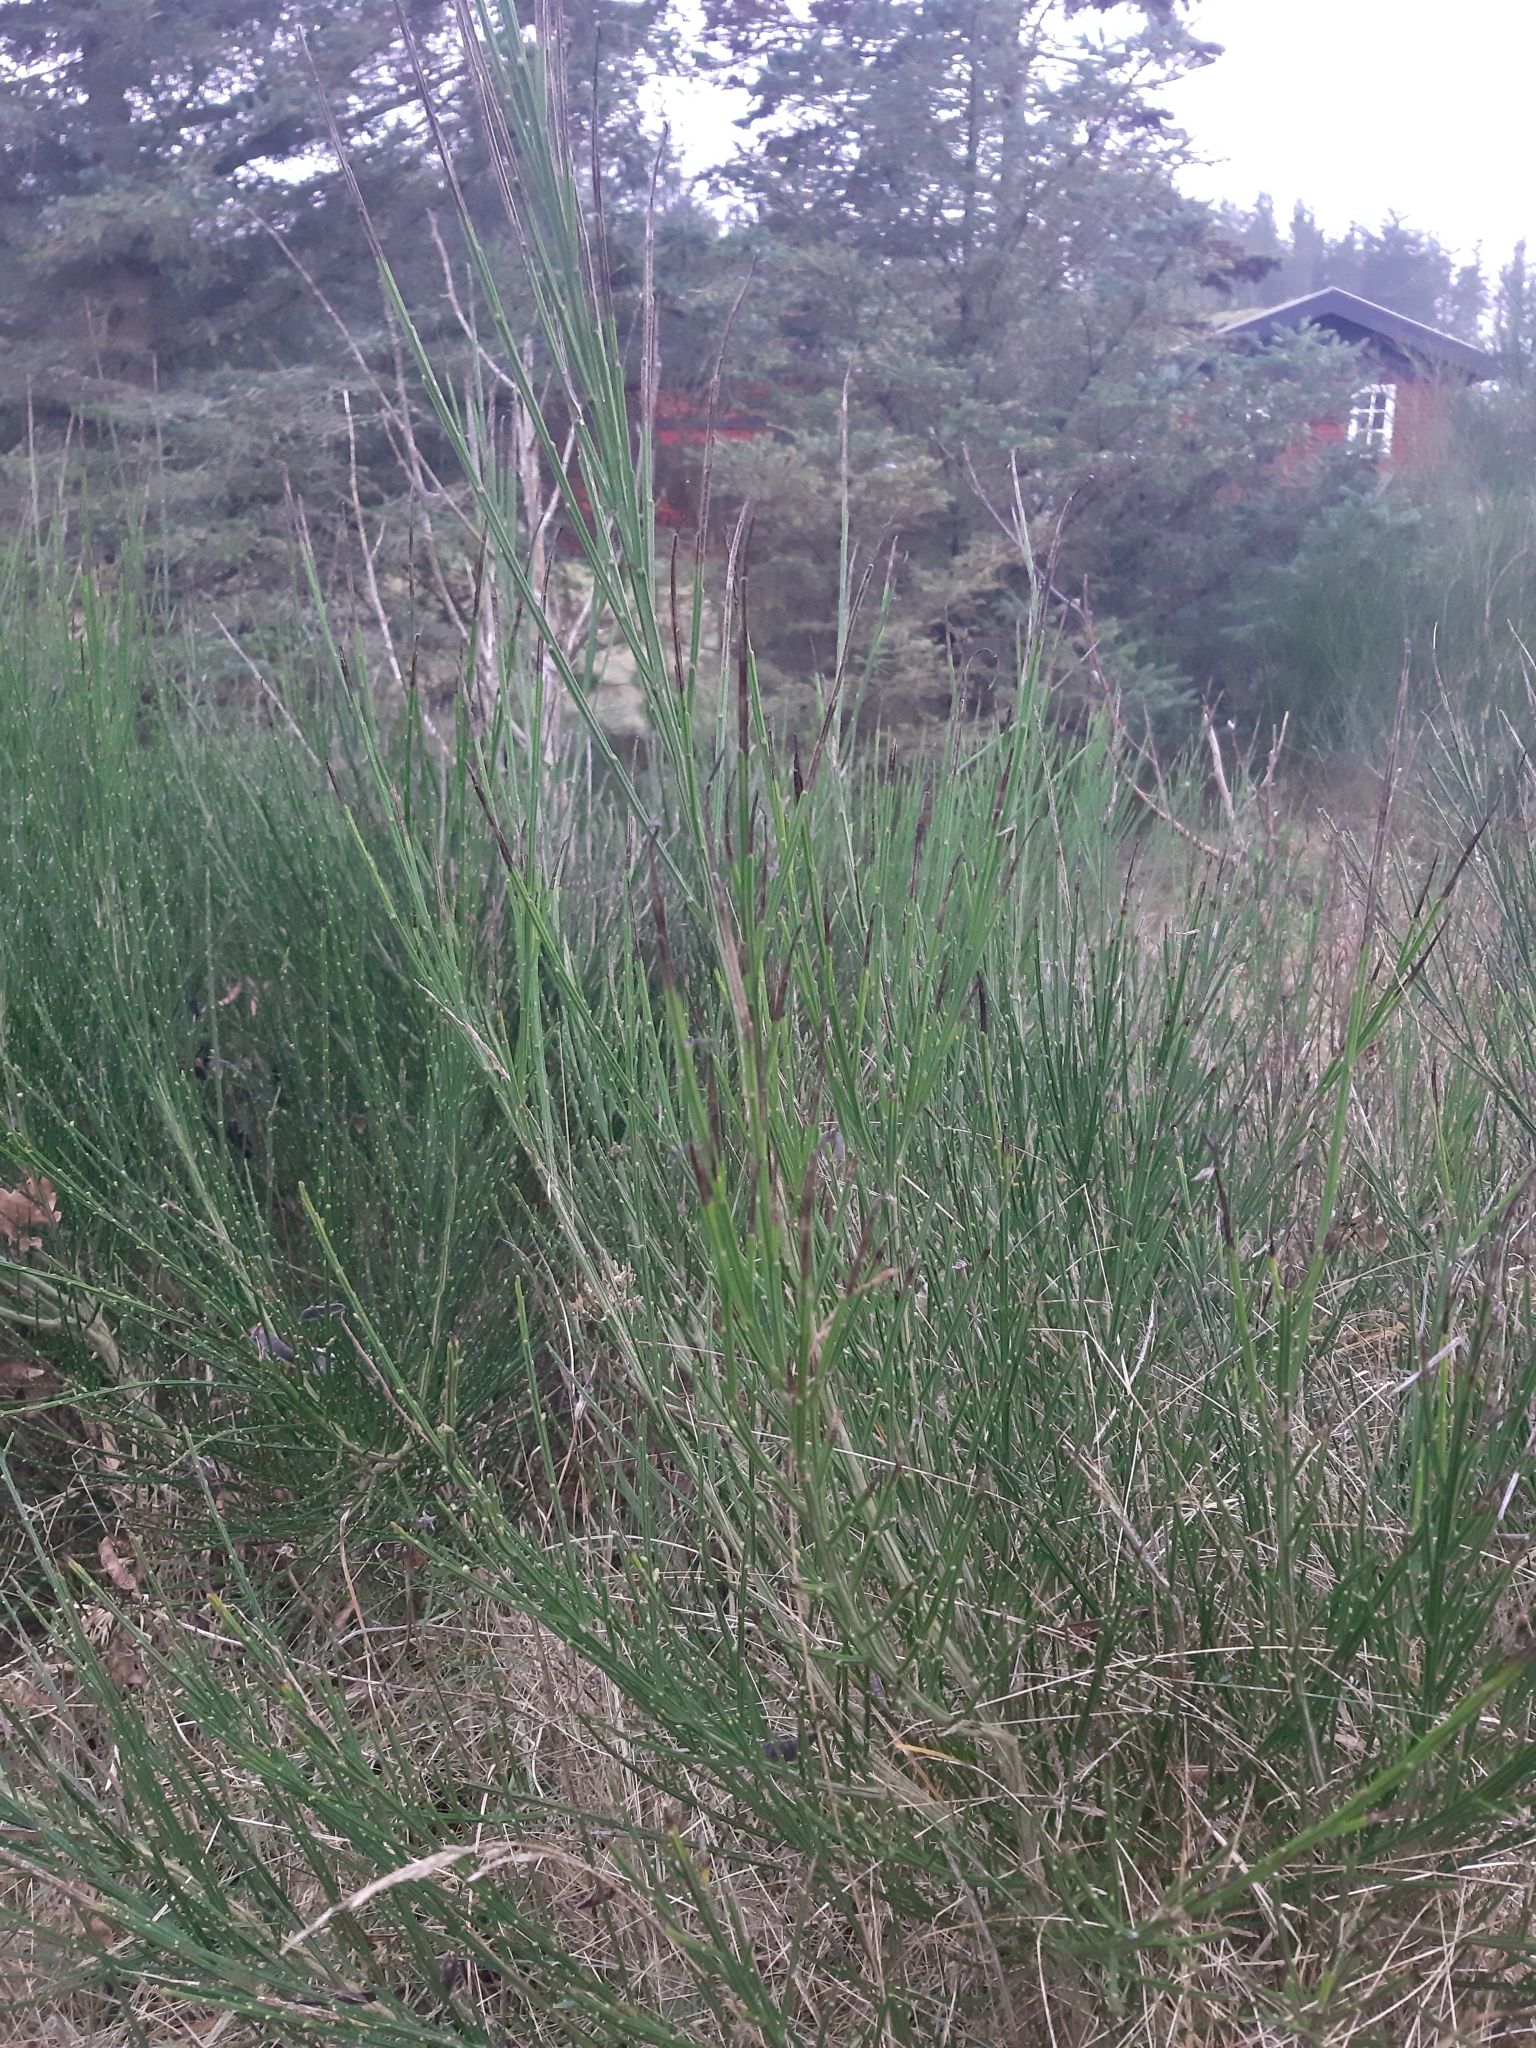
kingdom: Plantae
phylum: Tracheophyta
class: Magnoliopsida
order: Fabales
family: Fabaceae
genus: Cytisus
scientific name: Cytisus scoparius
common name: Scotch broom
